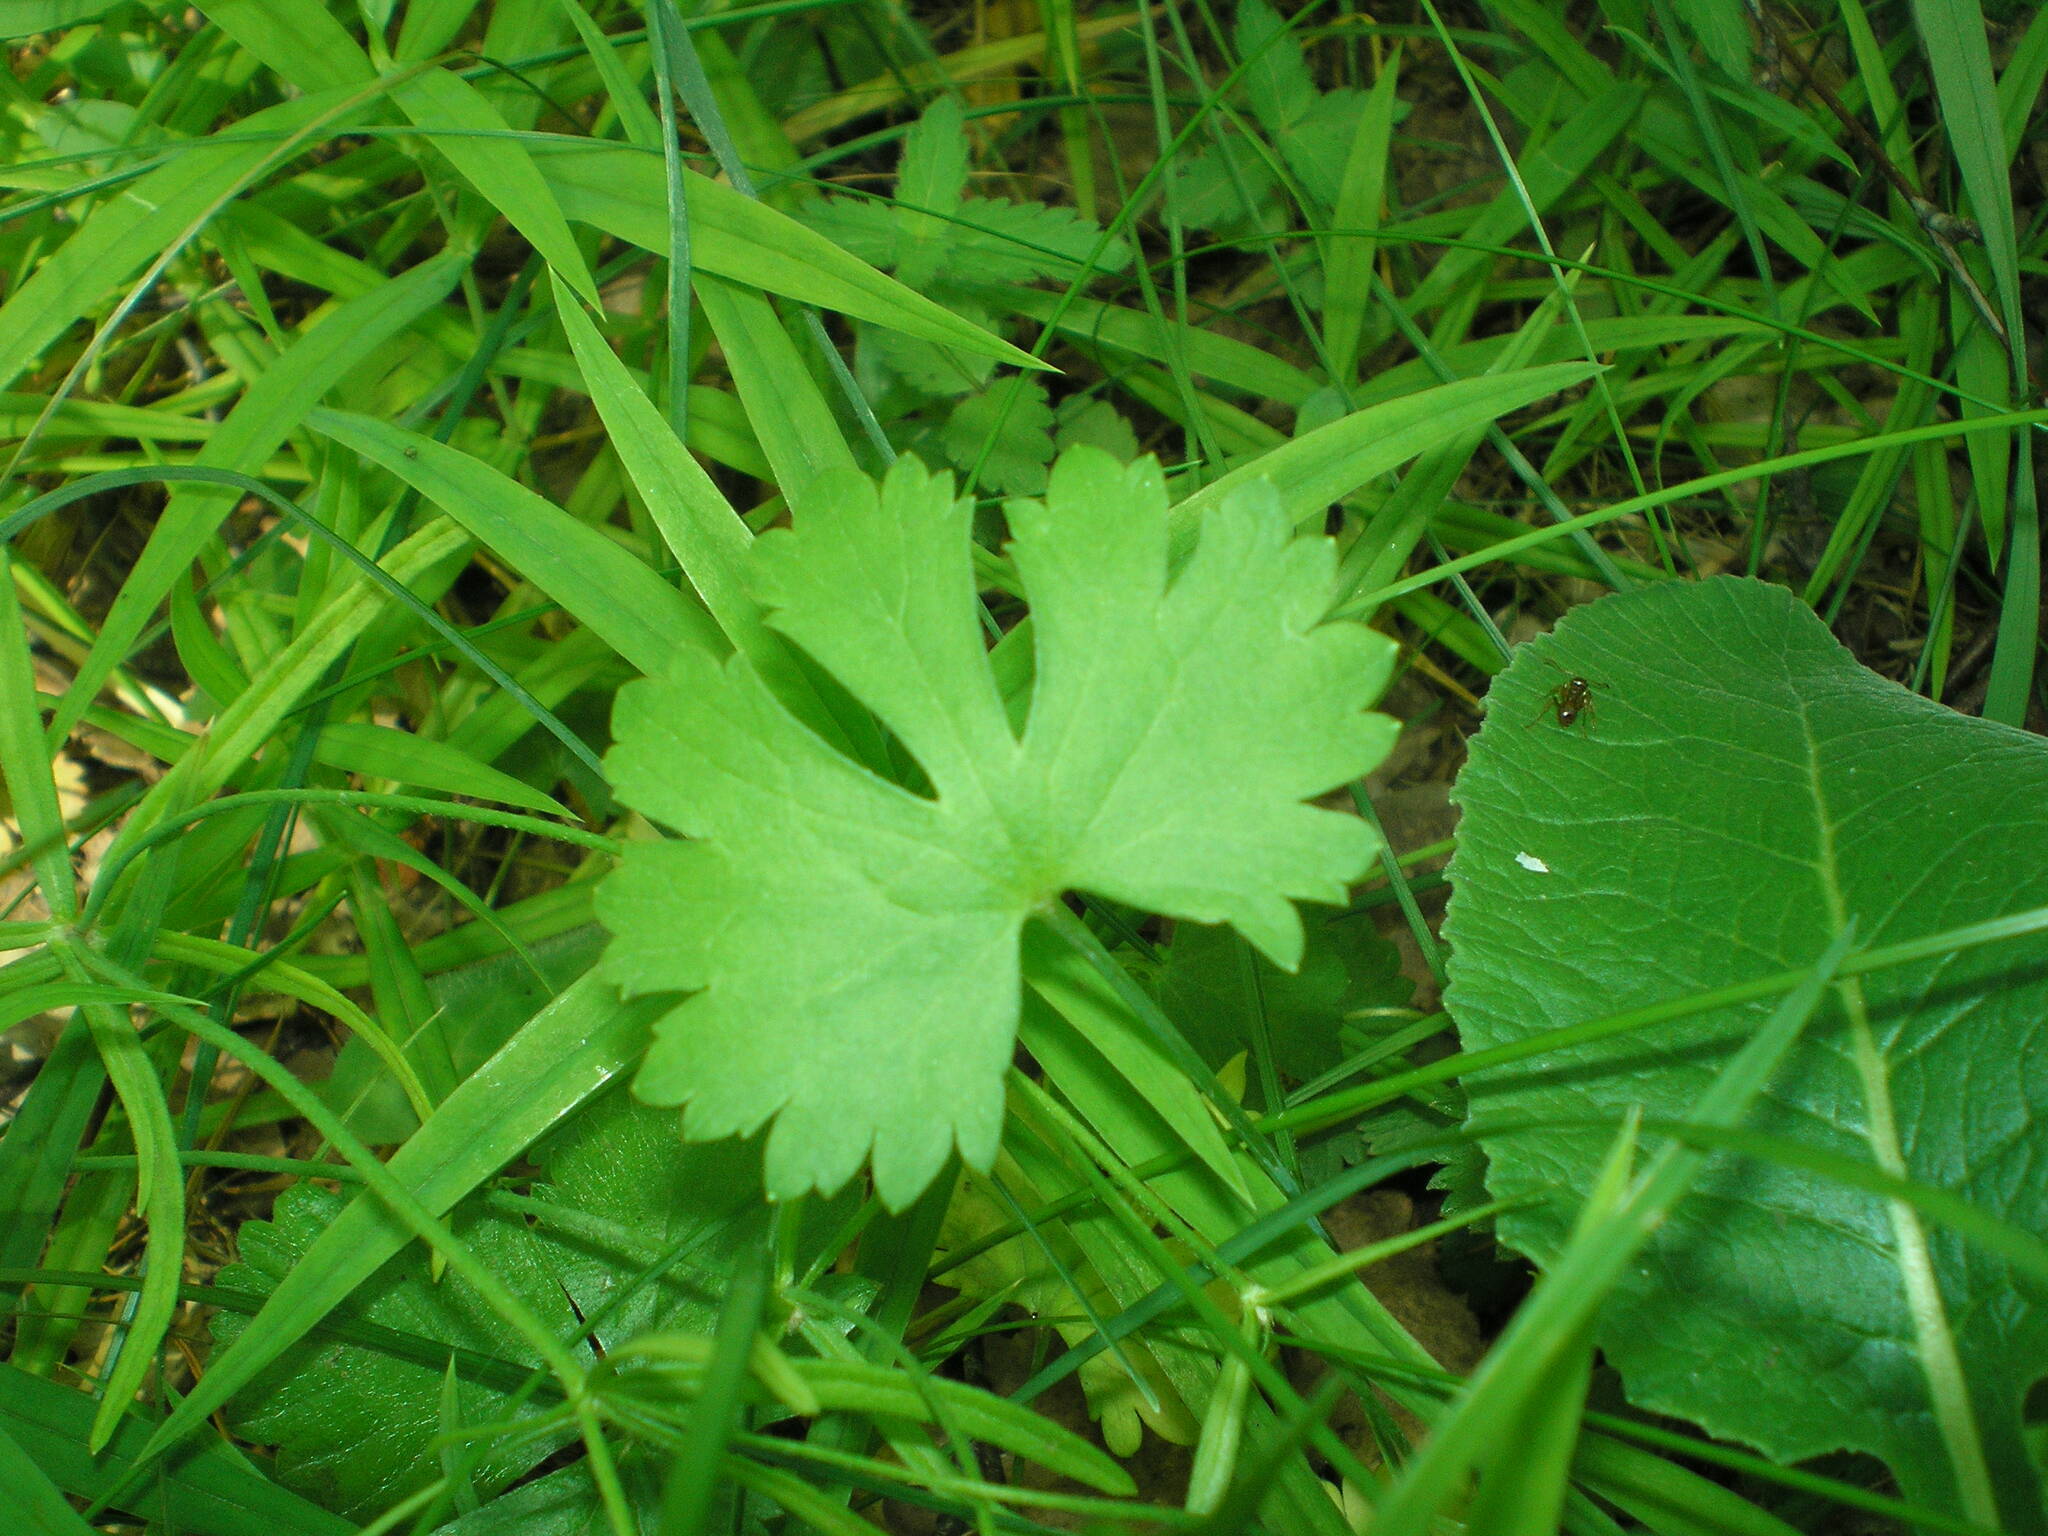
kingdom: Plantae
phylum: Tracheophyta
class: Magnoliopsida
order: Ranunculales
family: Ranunculaceae
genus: Ranunculus
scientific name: Ranunculus auricomus
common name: Goldilocks buttercup
